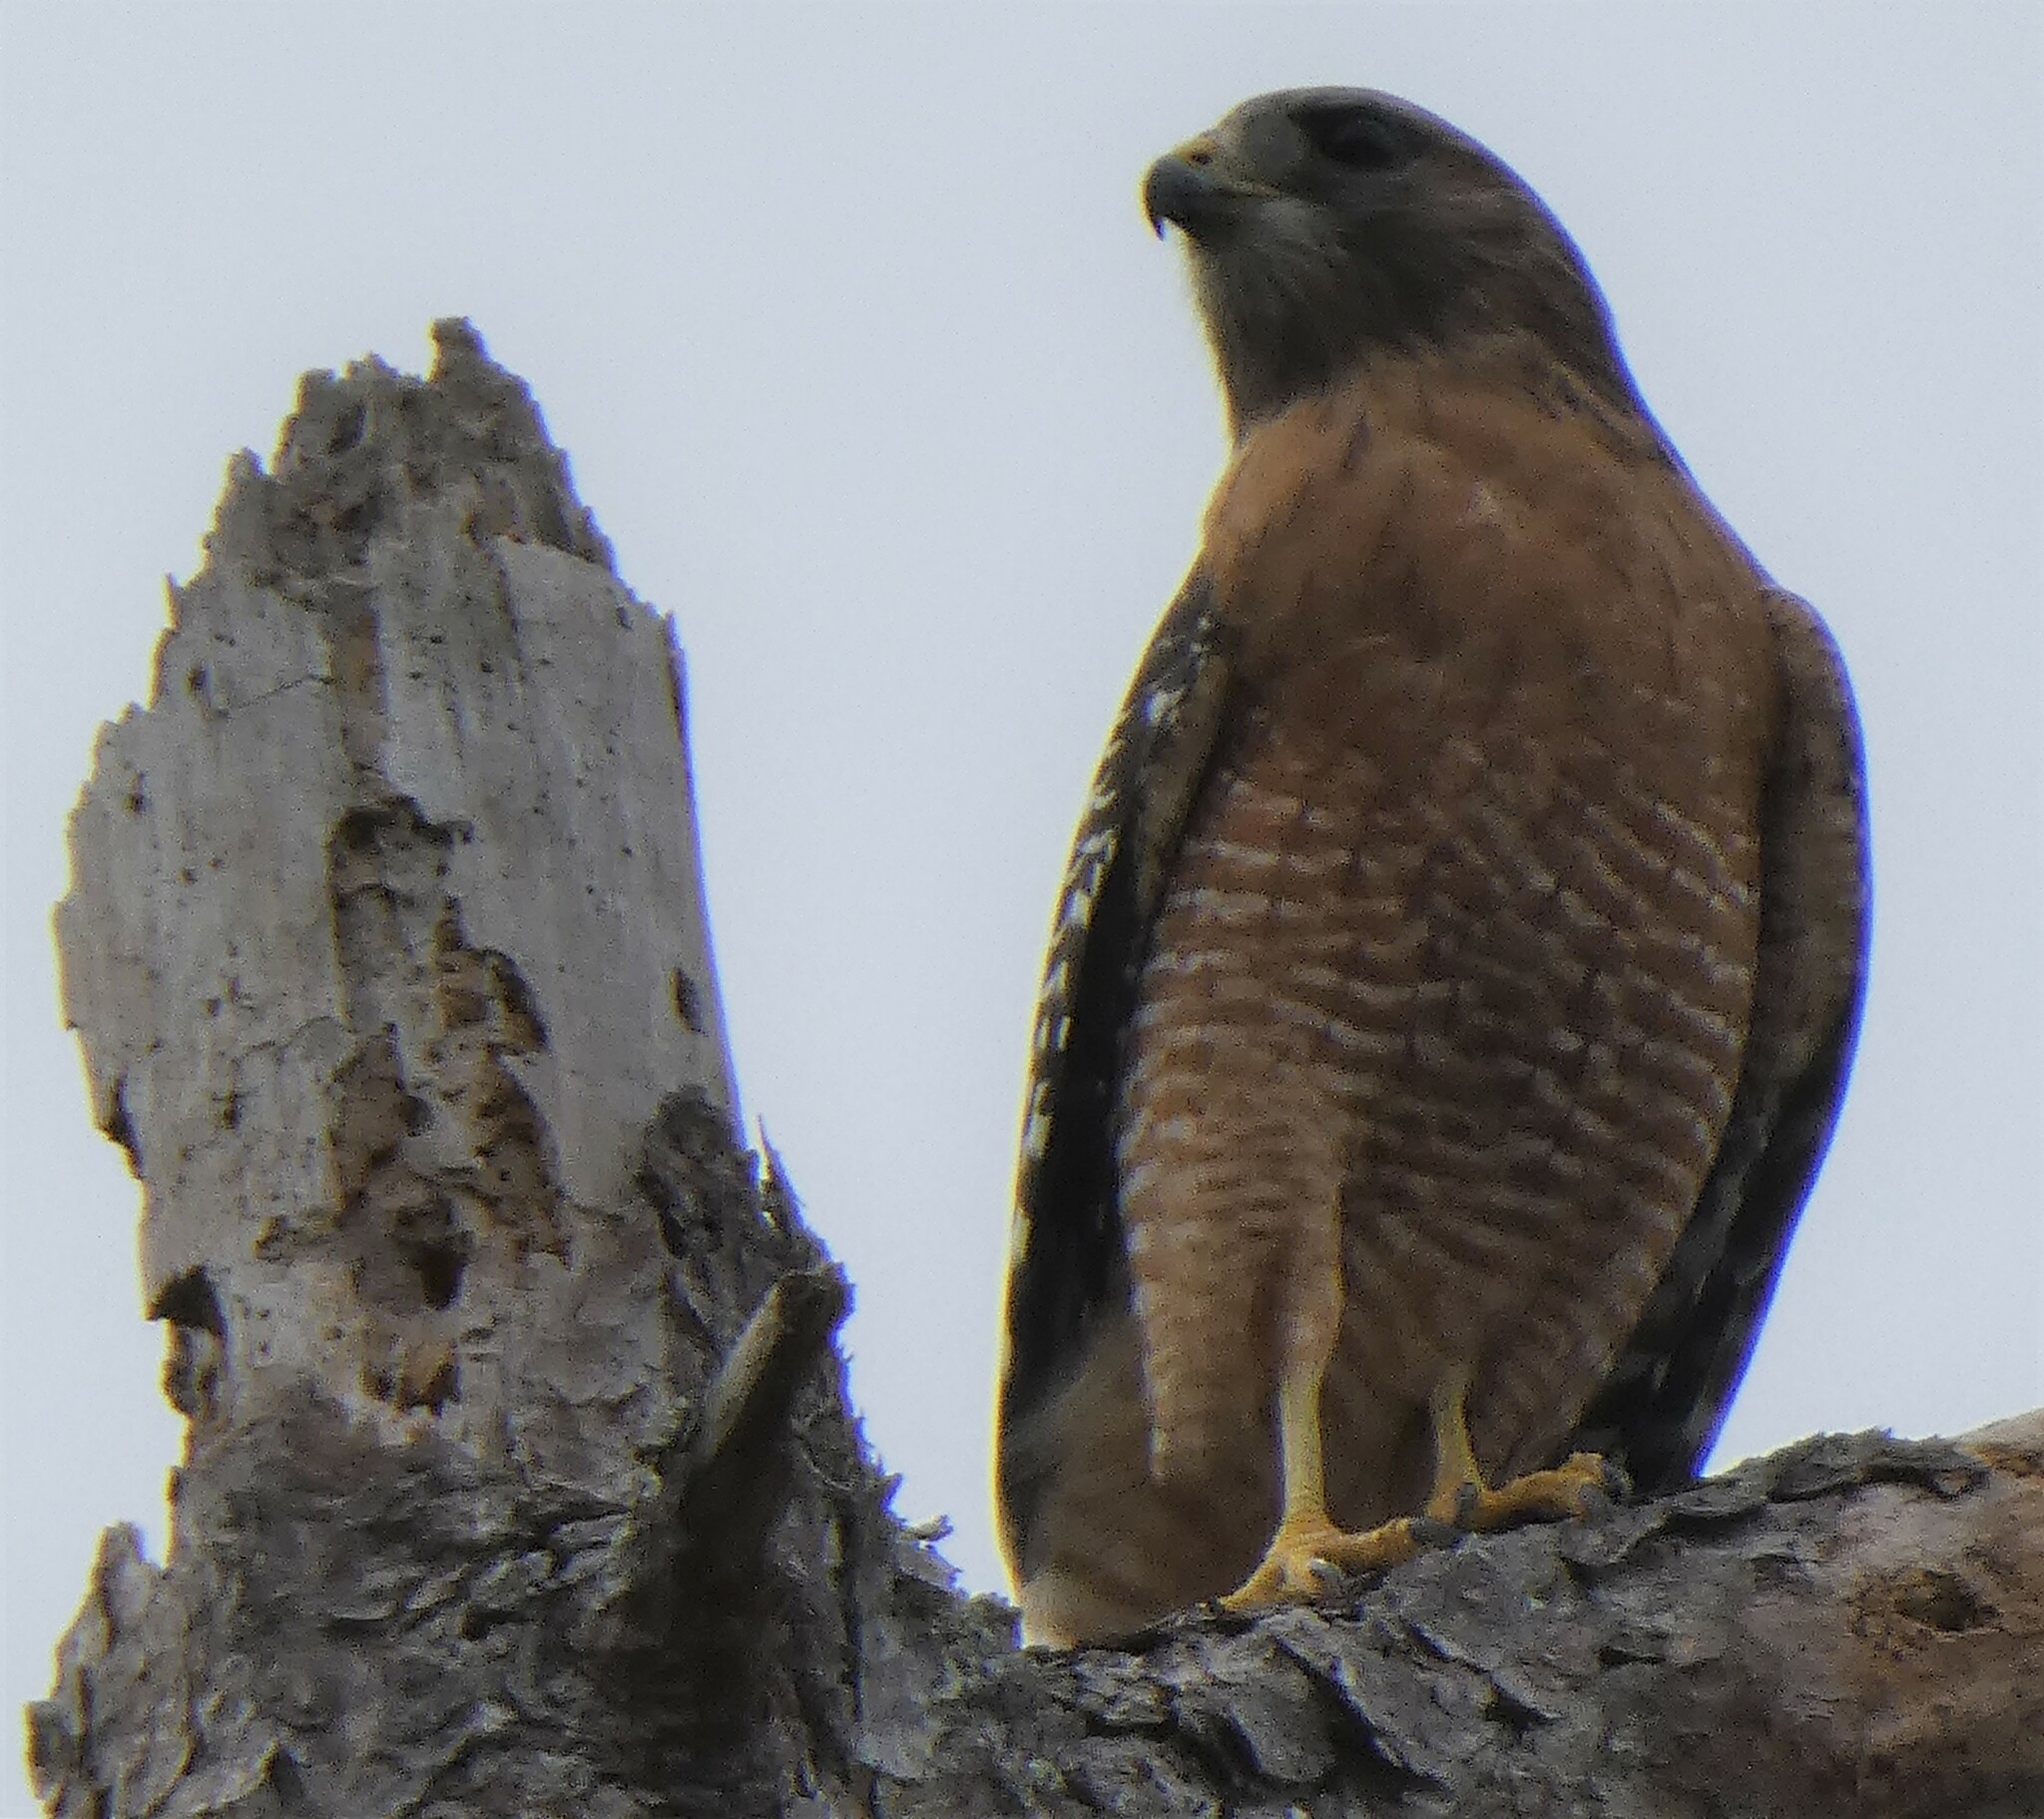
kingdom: Animalia
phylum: Chordata
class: Aves
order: Accipitriformes
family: Accipitridae
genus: Buteo
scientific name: Buteo lineatus
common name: Red-shouldered hawk
